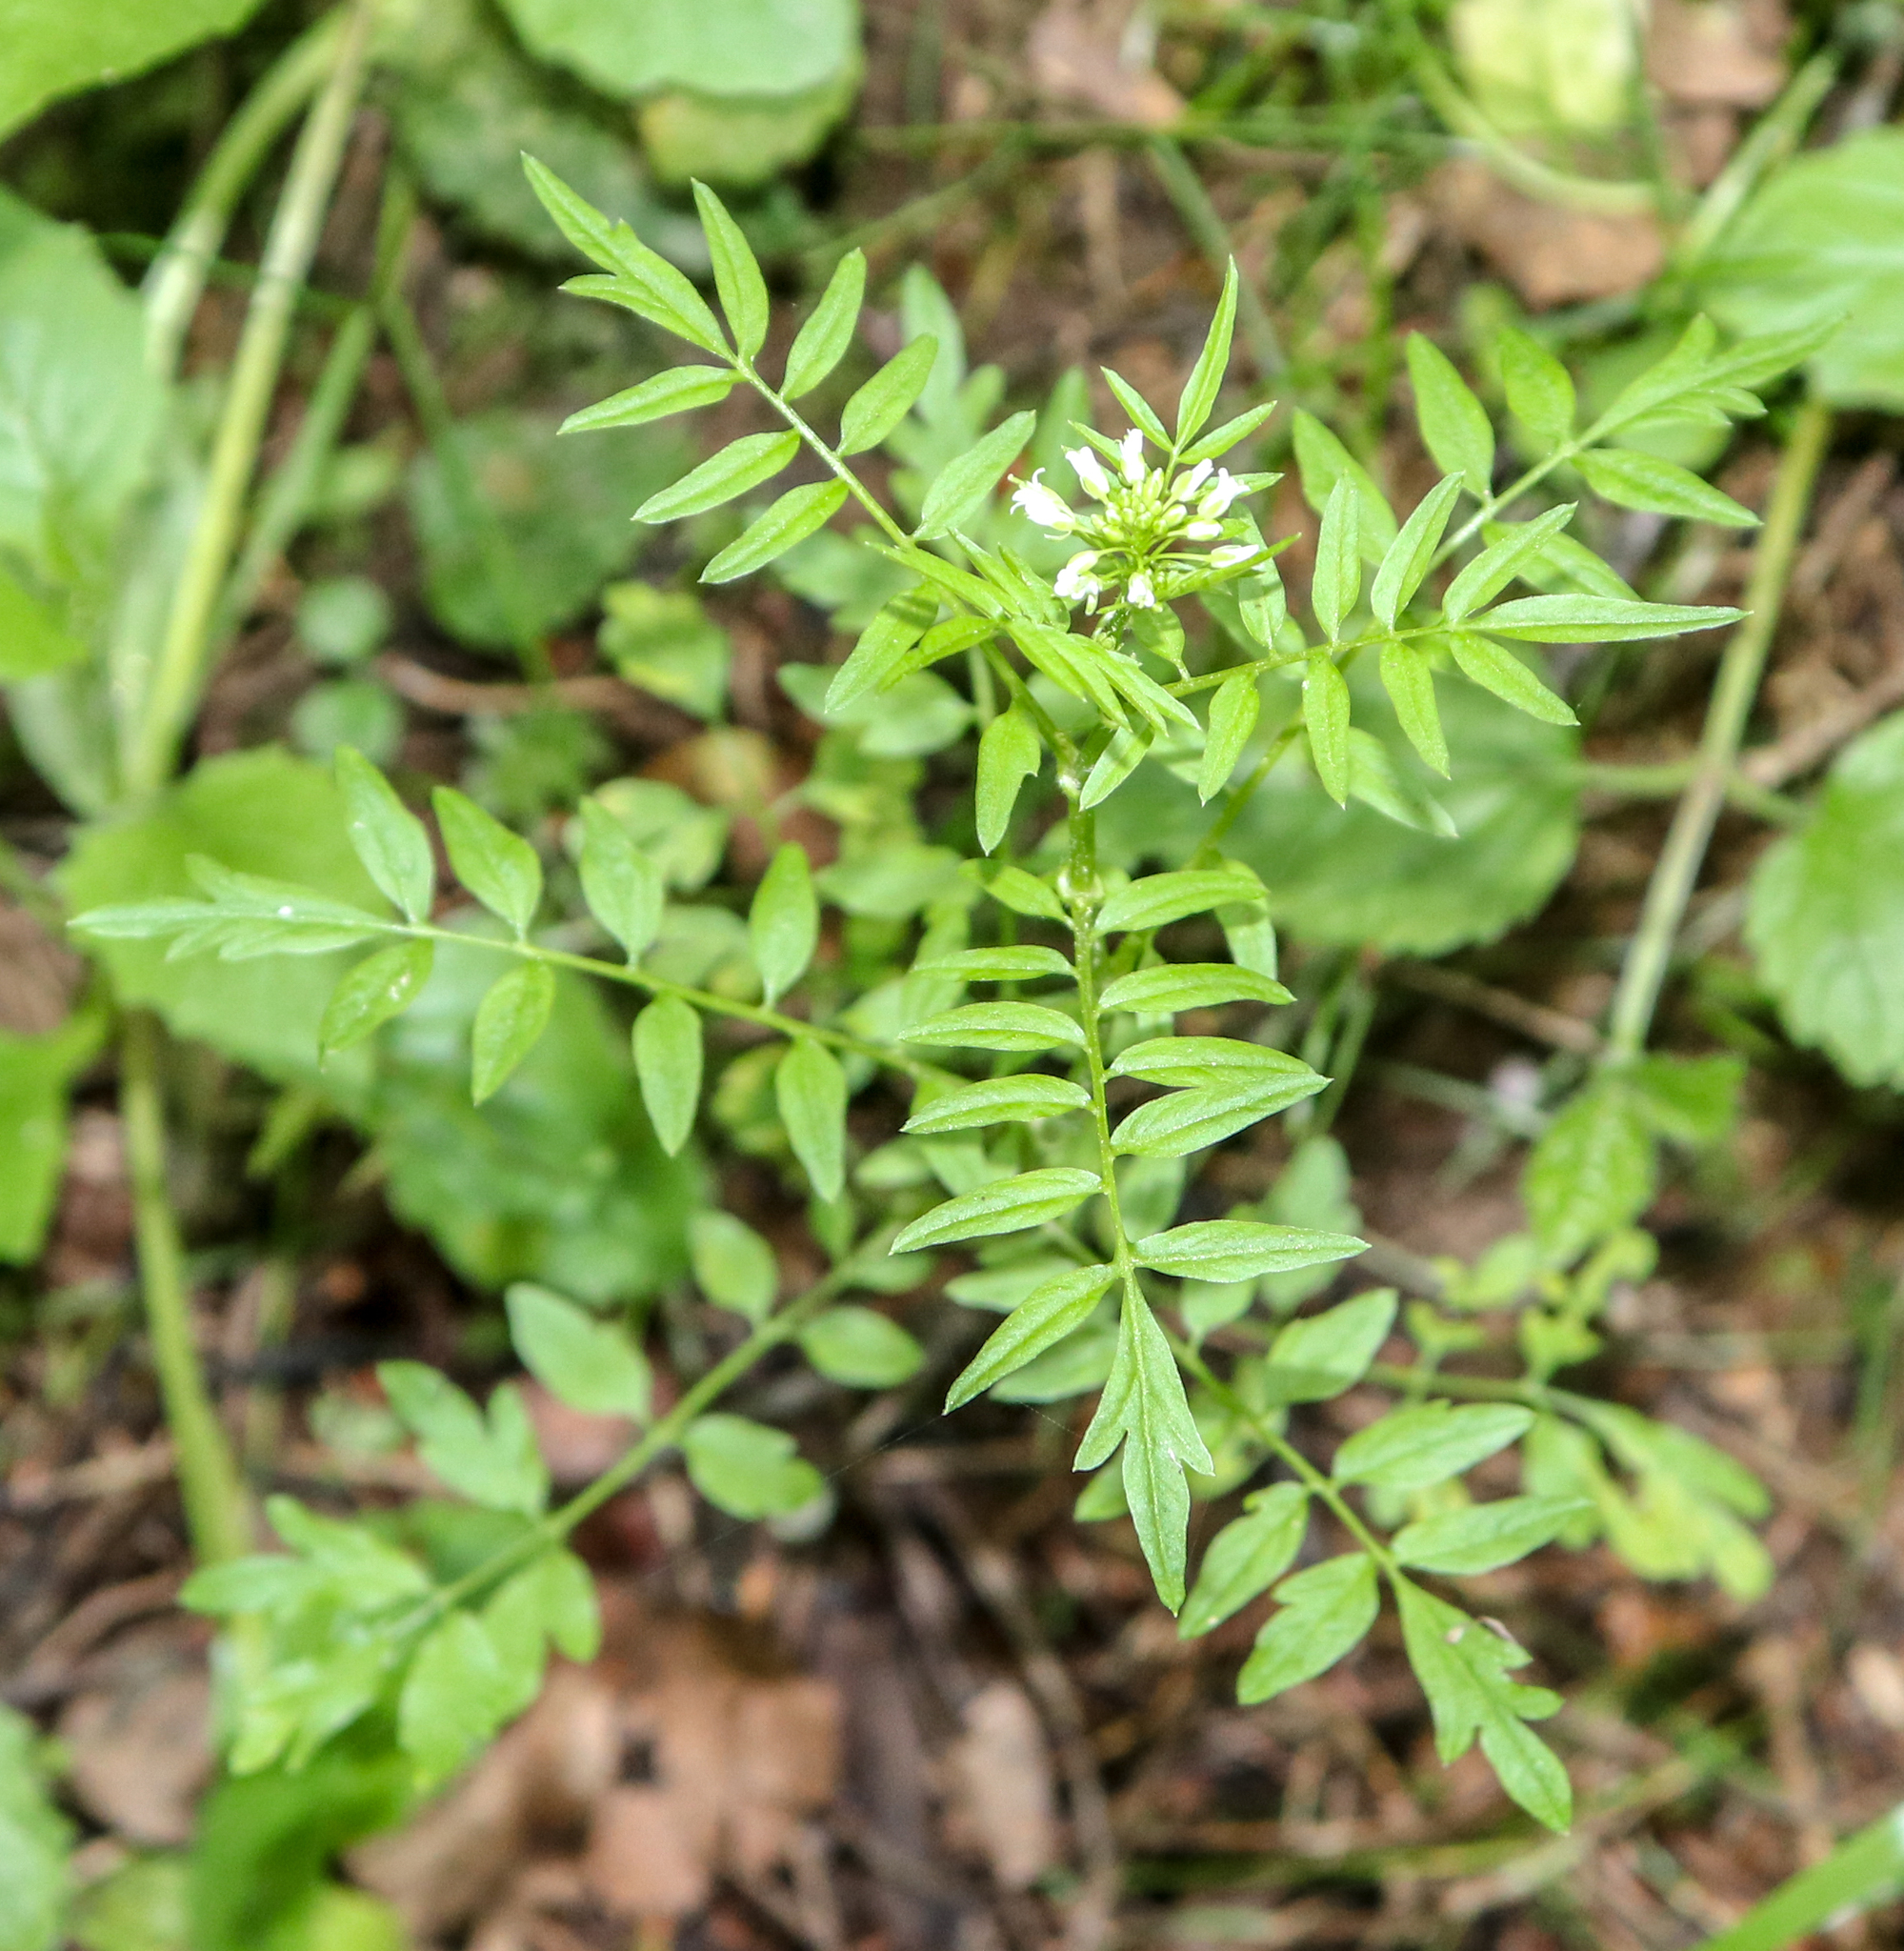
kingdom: Plantae
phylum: Tracheophyta
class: Magnoliopsida
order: Brassicales
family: Brassicaceae
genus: Cardamine
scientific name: Cardamine impatiens
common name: Narrow-leaved bitter-cress
